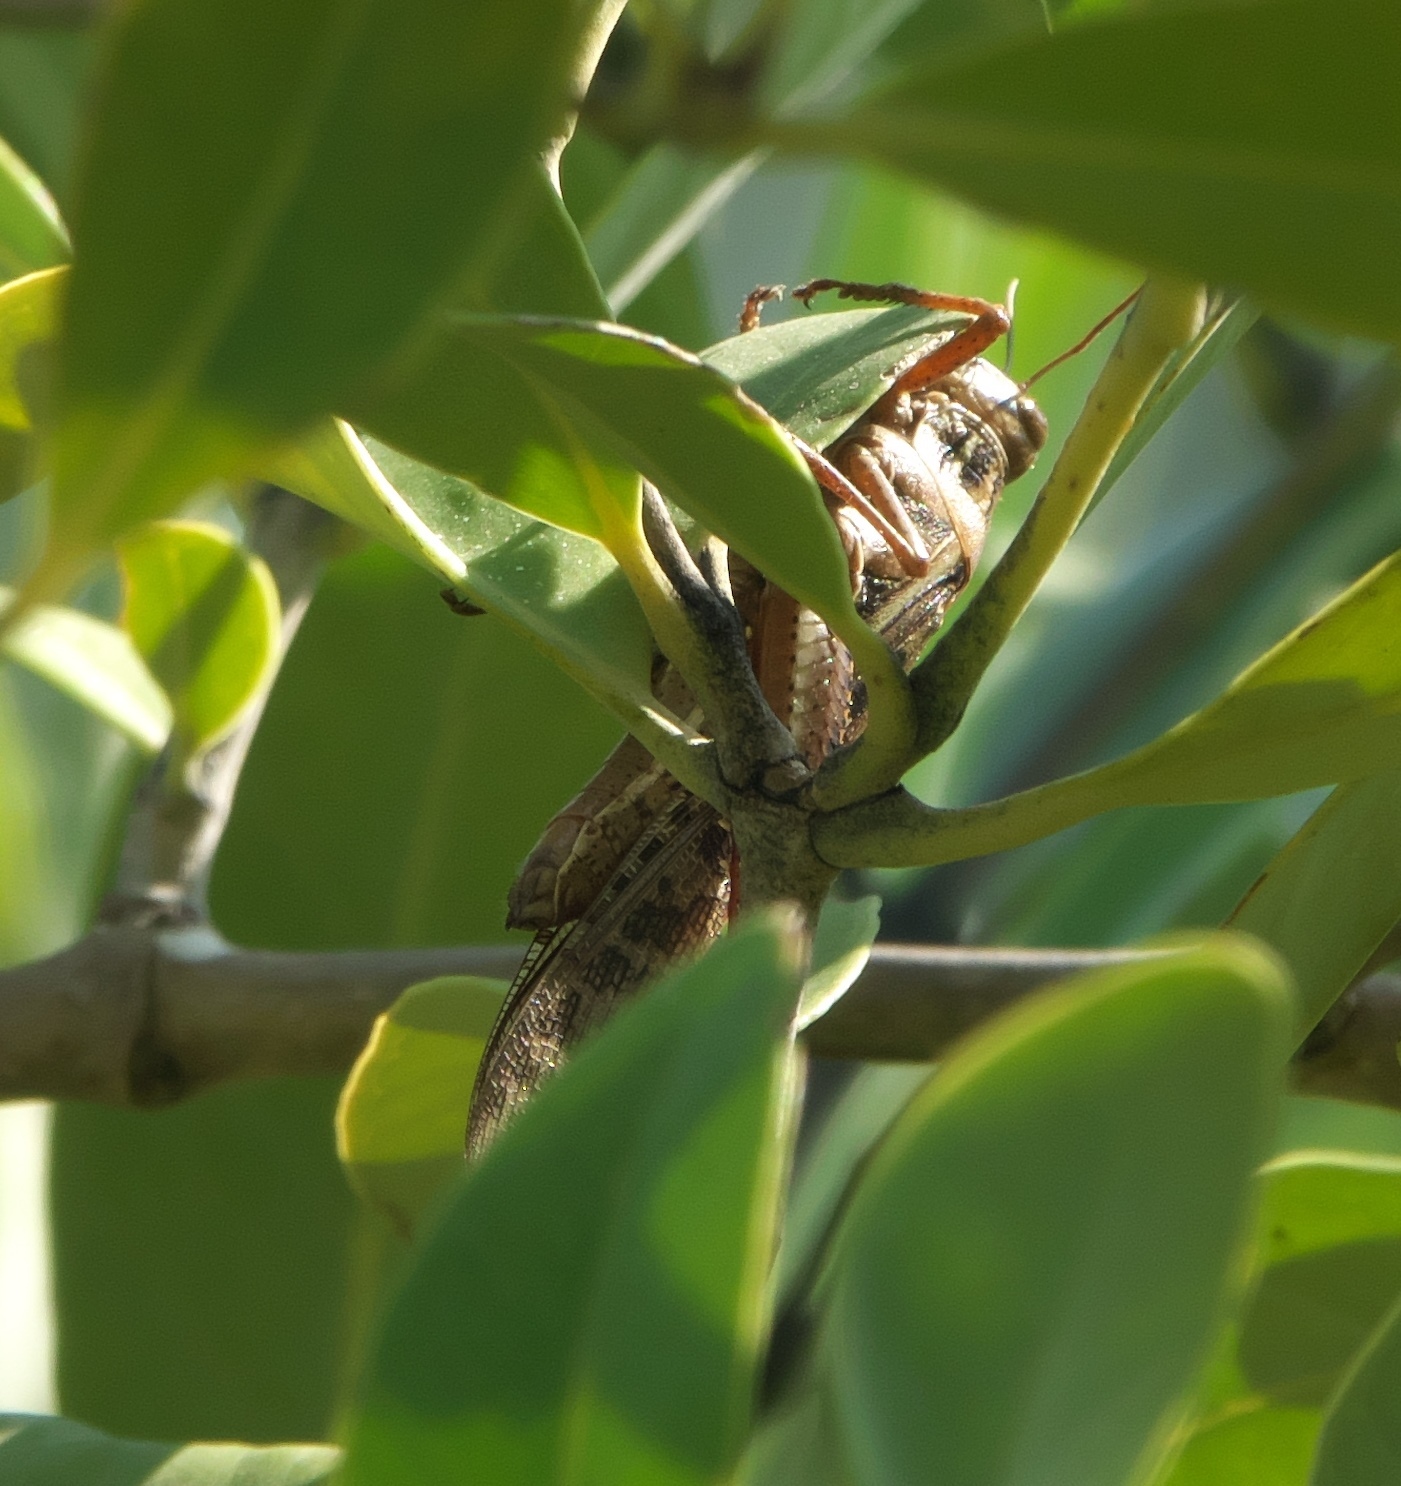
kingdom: Animalia
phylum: Arthropoda
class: Insecta
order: Orthoptera
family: Acrididae
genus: Schistocerca
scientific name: Schistocerca americana
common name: American bird locust
